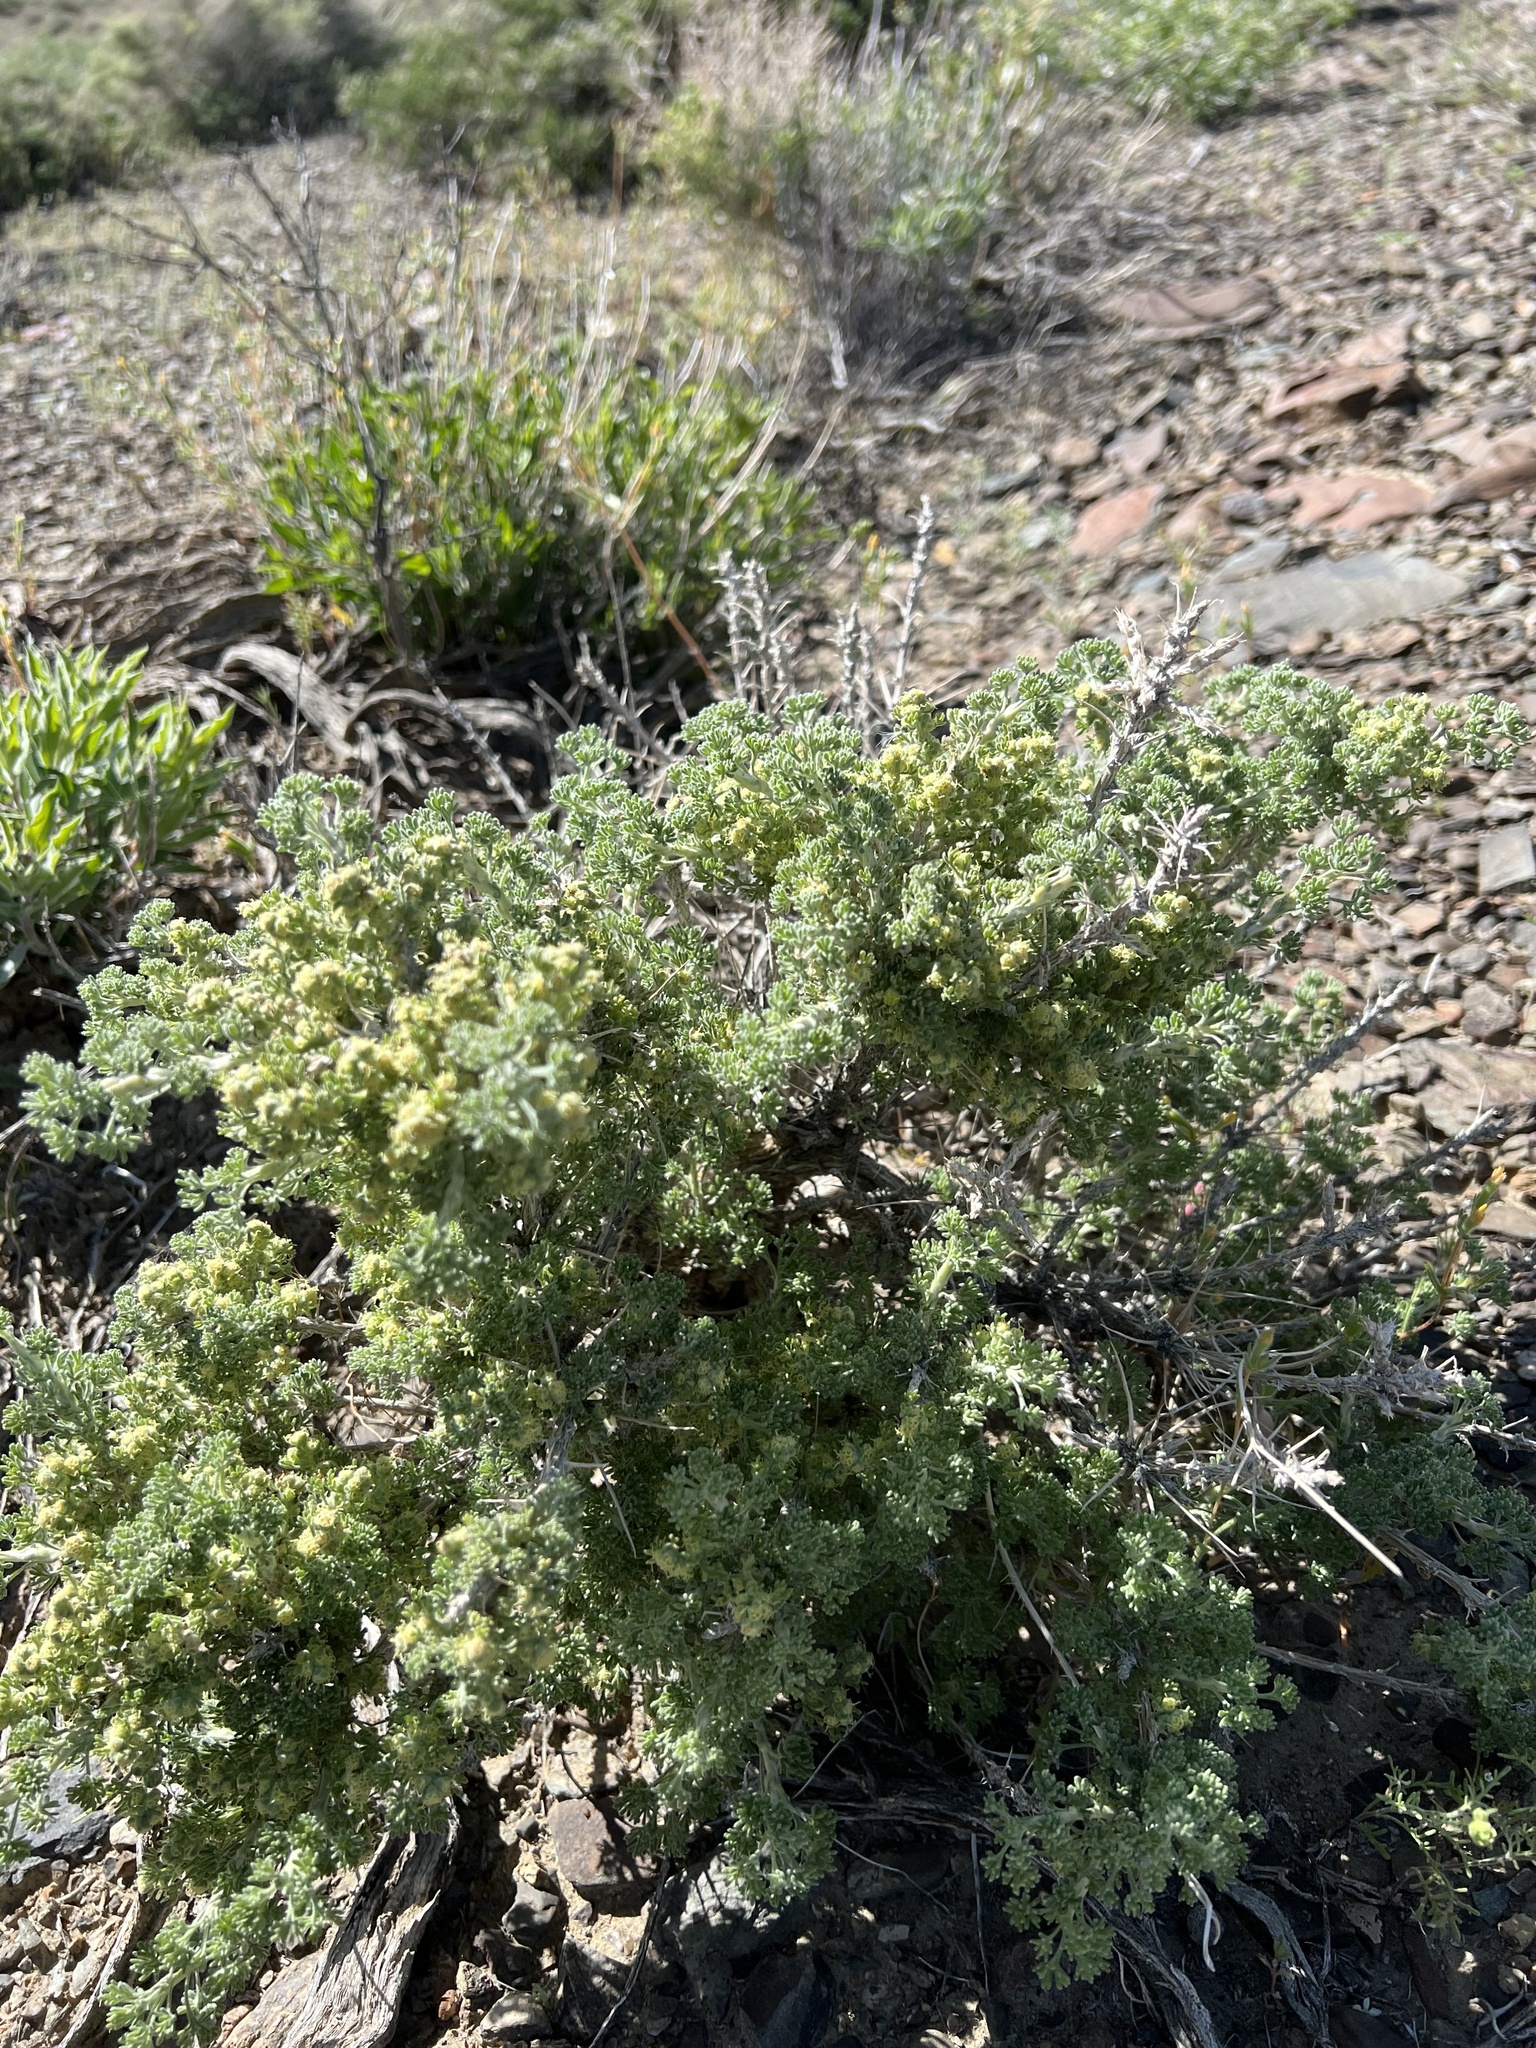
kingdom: Plantae
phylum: Tracheophyta
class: Magnoliopsida
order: Asterales
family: Asteraceae
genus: Artemisia
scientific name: Artemisia spinescens
